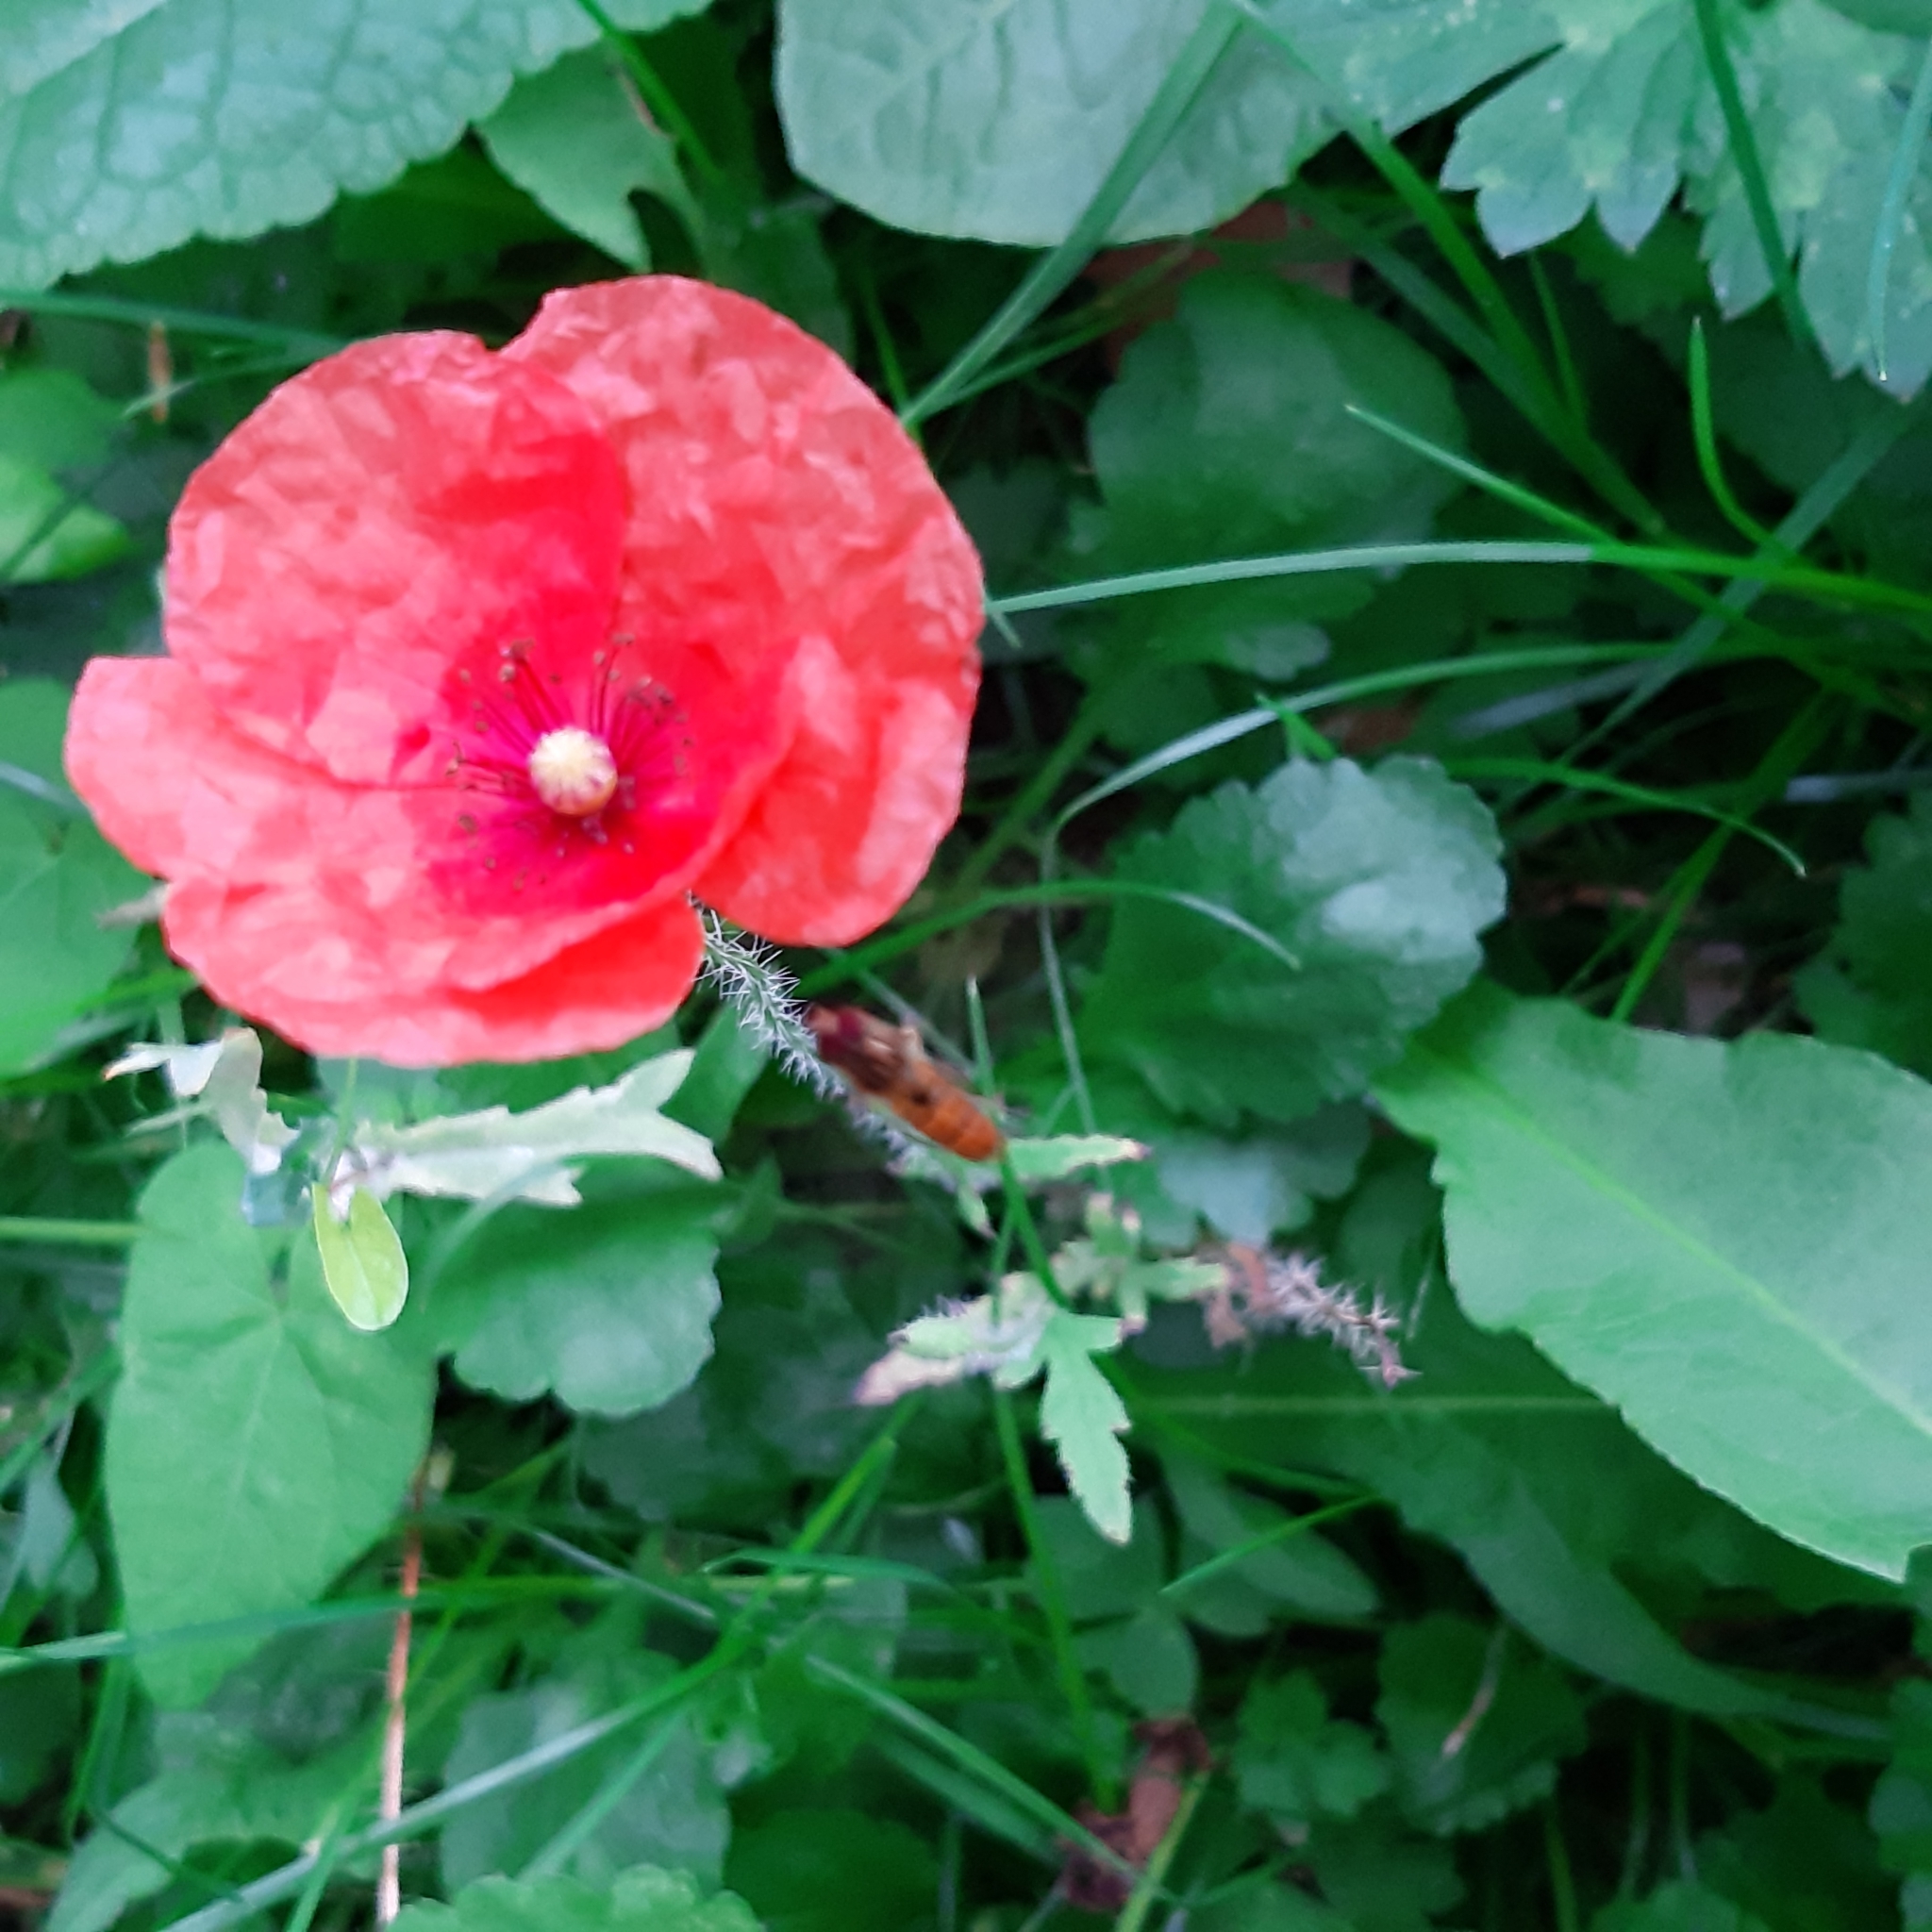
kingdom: Plantae
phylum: Tracheophyta
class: Magnoliopsida
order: Ranunculales
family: Papaveraceae
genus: Papaver
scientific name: Papaver rhoeas
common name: Corn poppy
